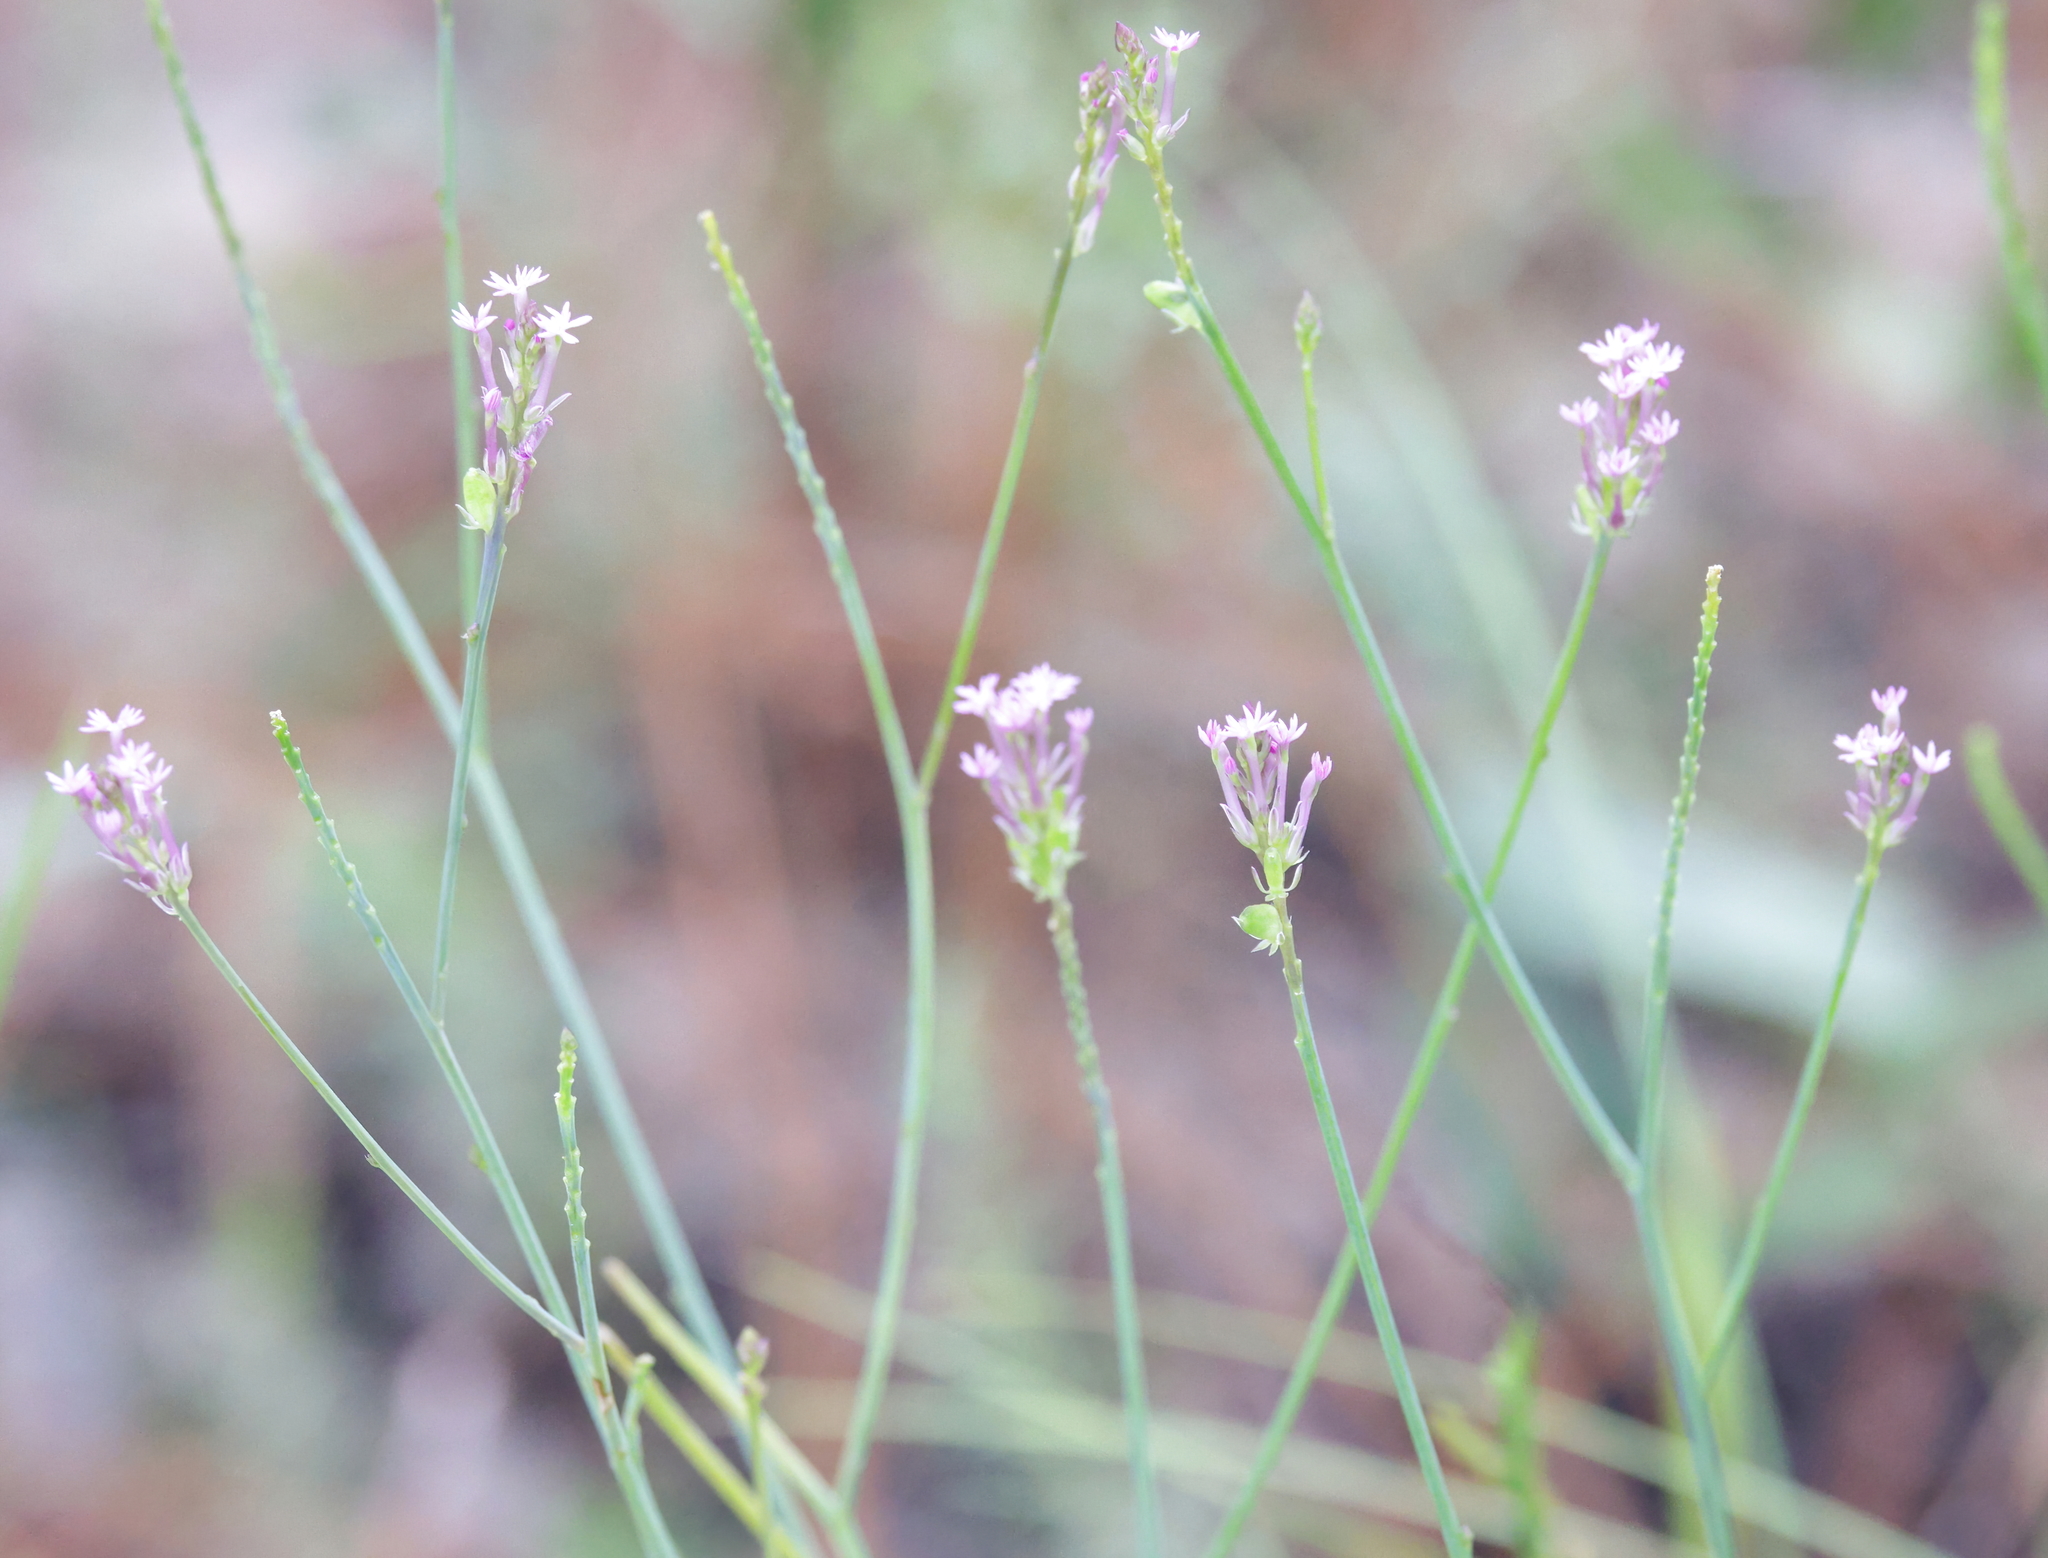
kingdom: Plantae
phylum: Tracheophyta
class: Magnoliopsida
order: Fabales
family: Polygalaceae
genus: Polygala
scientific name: Polygala incarnata
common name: Pink milkwort
